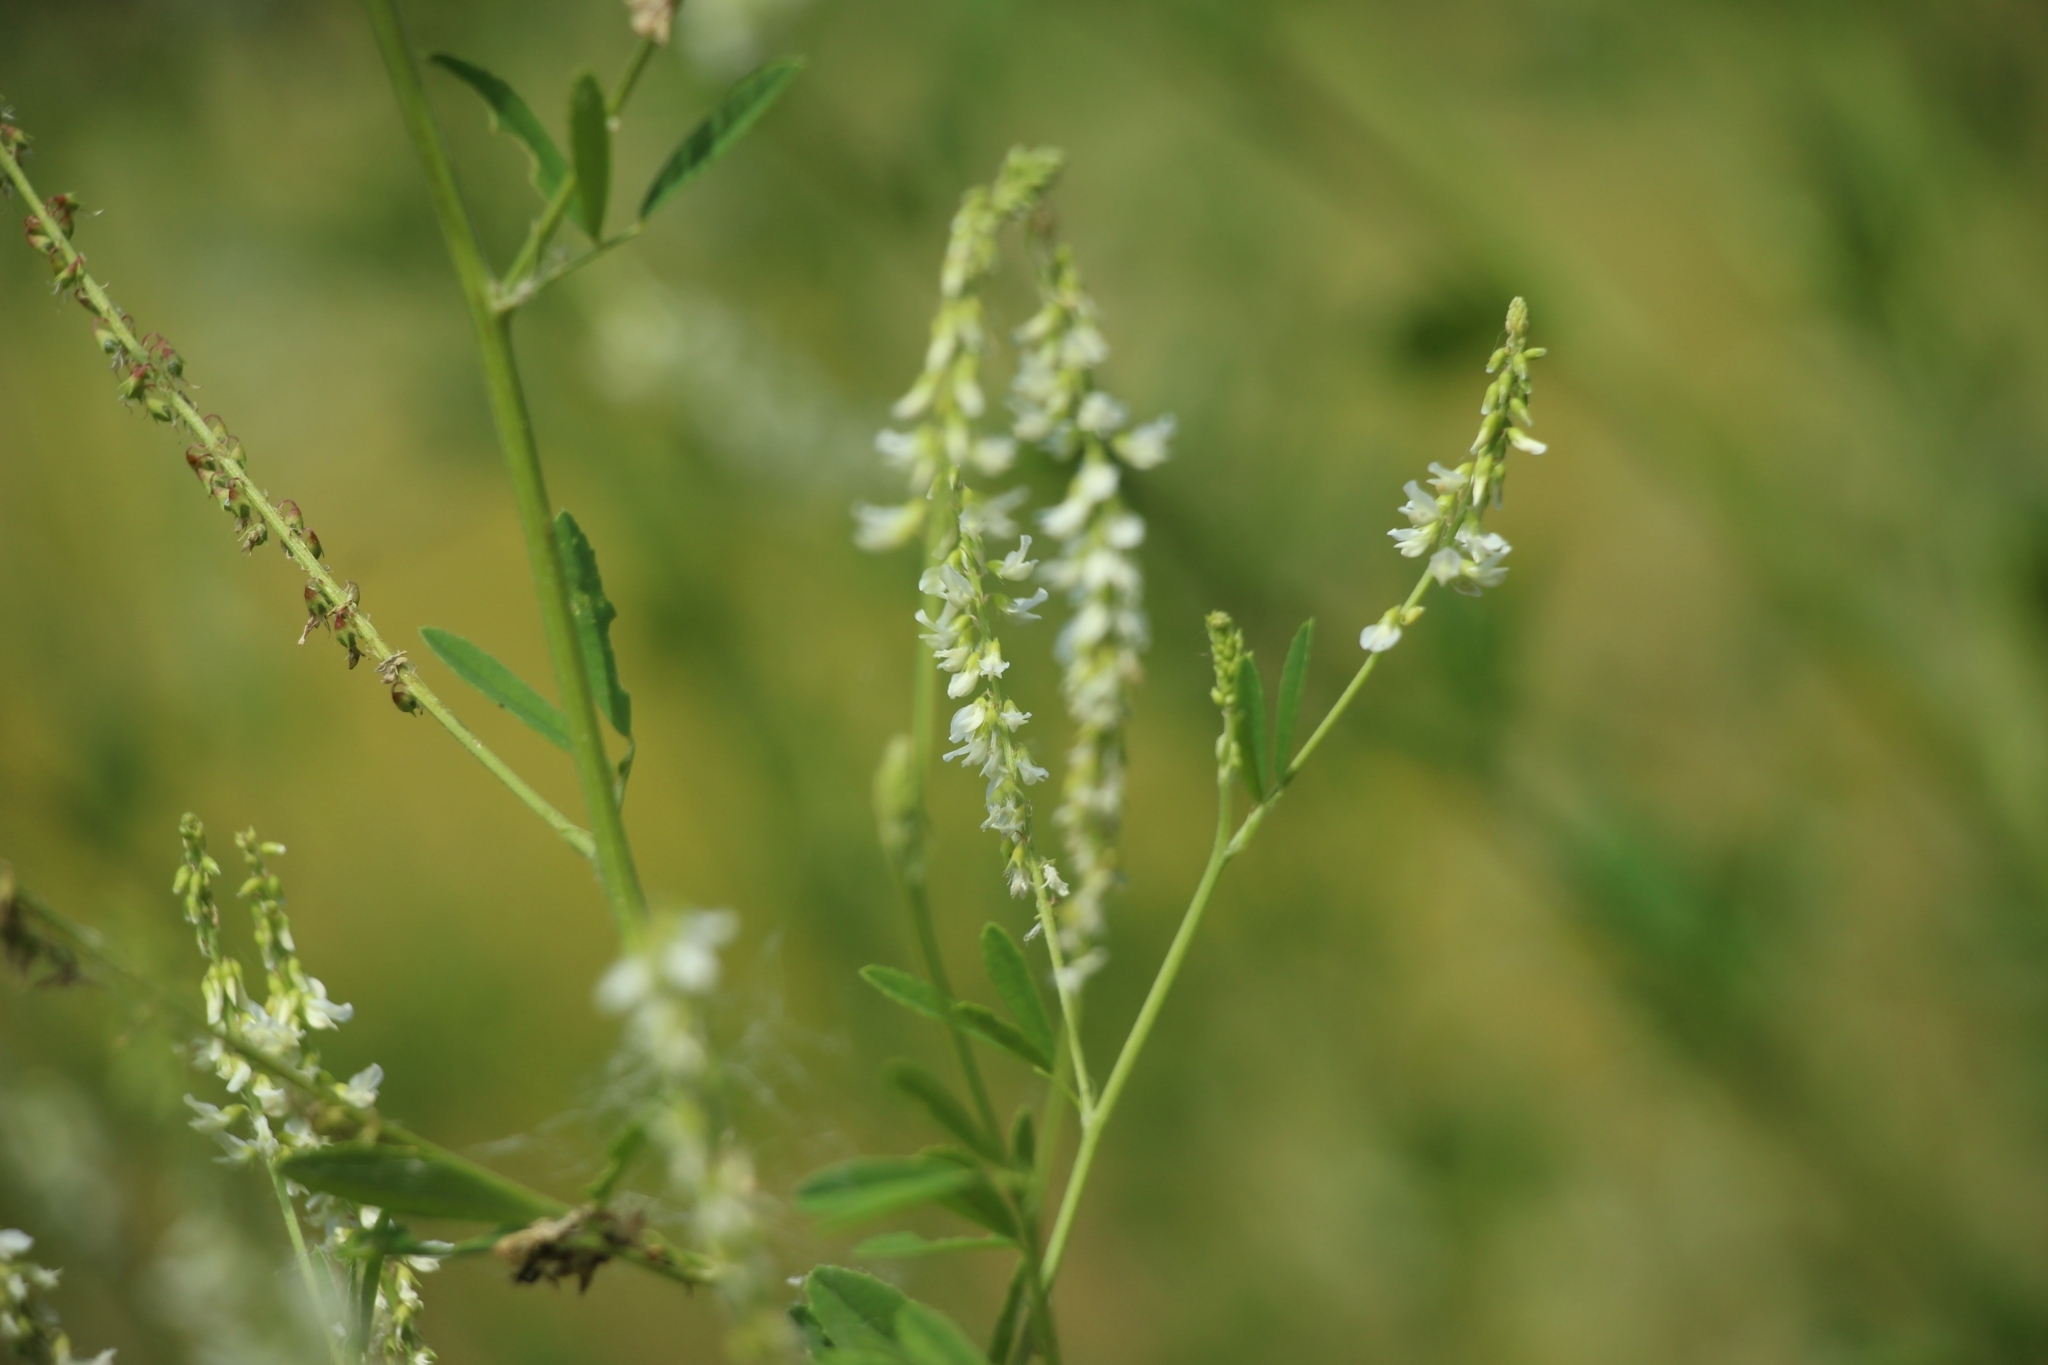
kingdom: Plantae
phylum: Tracheophyta
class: Magnoliopsida
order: Fabales
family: Fabaceae
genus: Melilotus
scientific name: Melilotus albus
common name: White melilot
